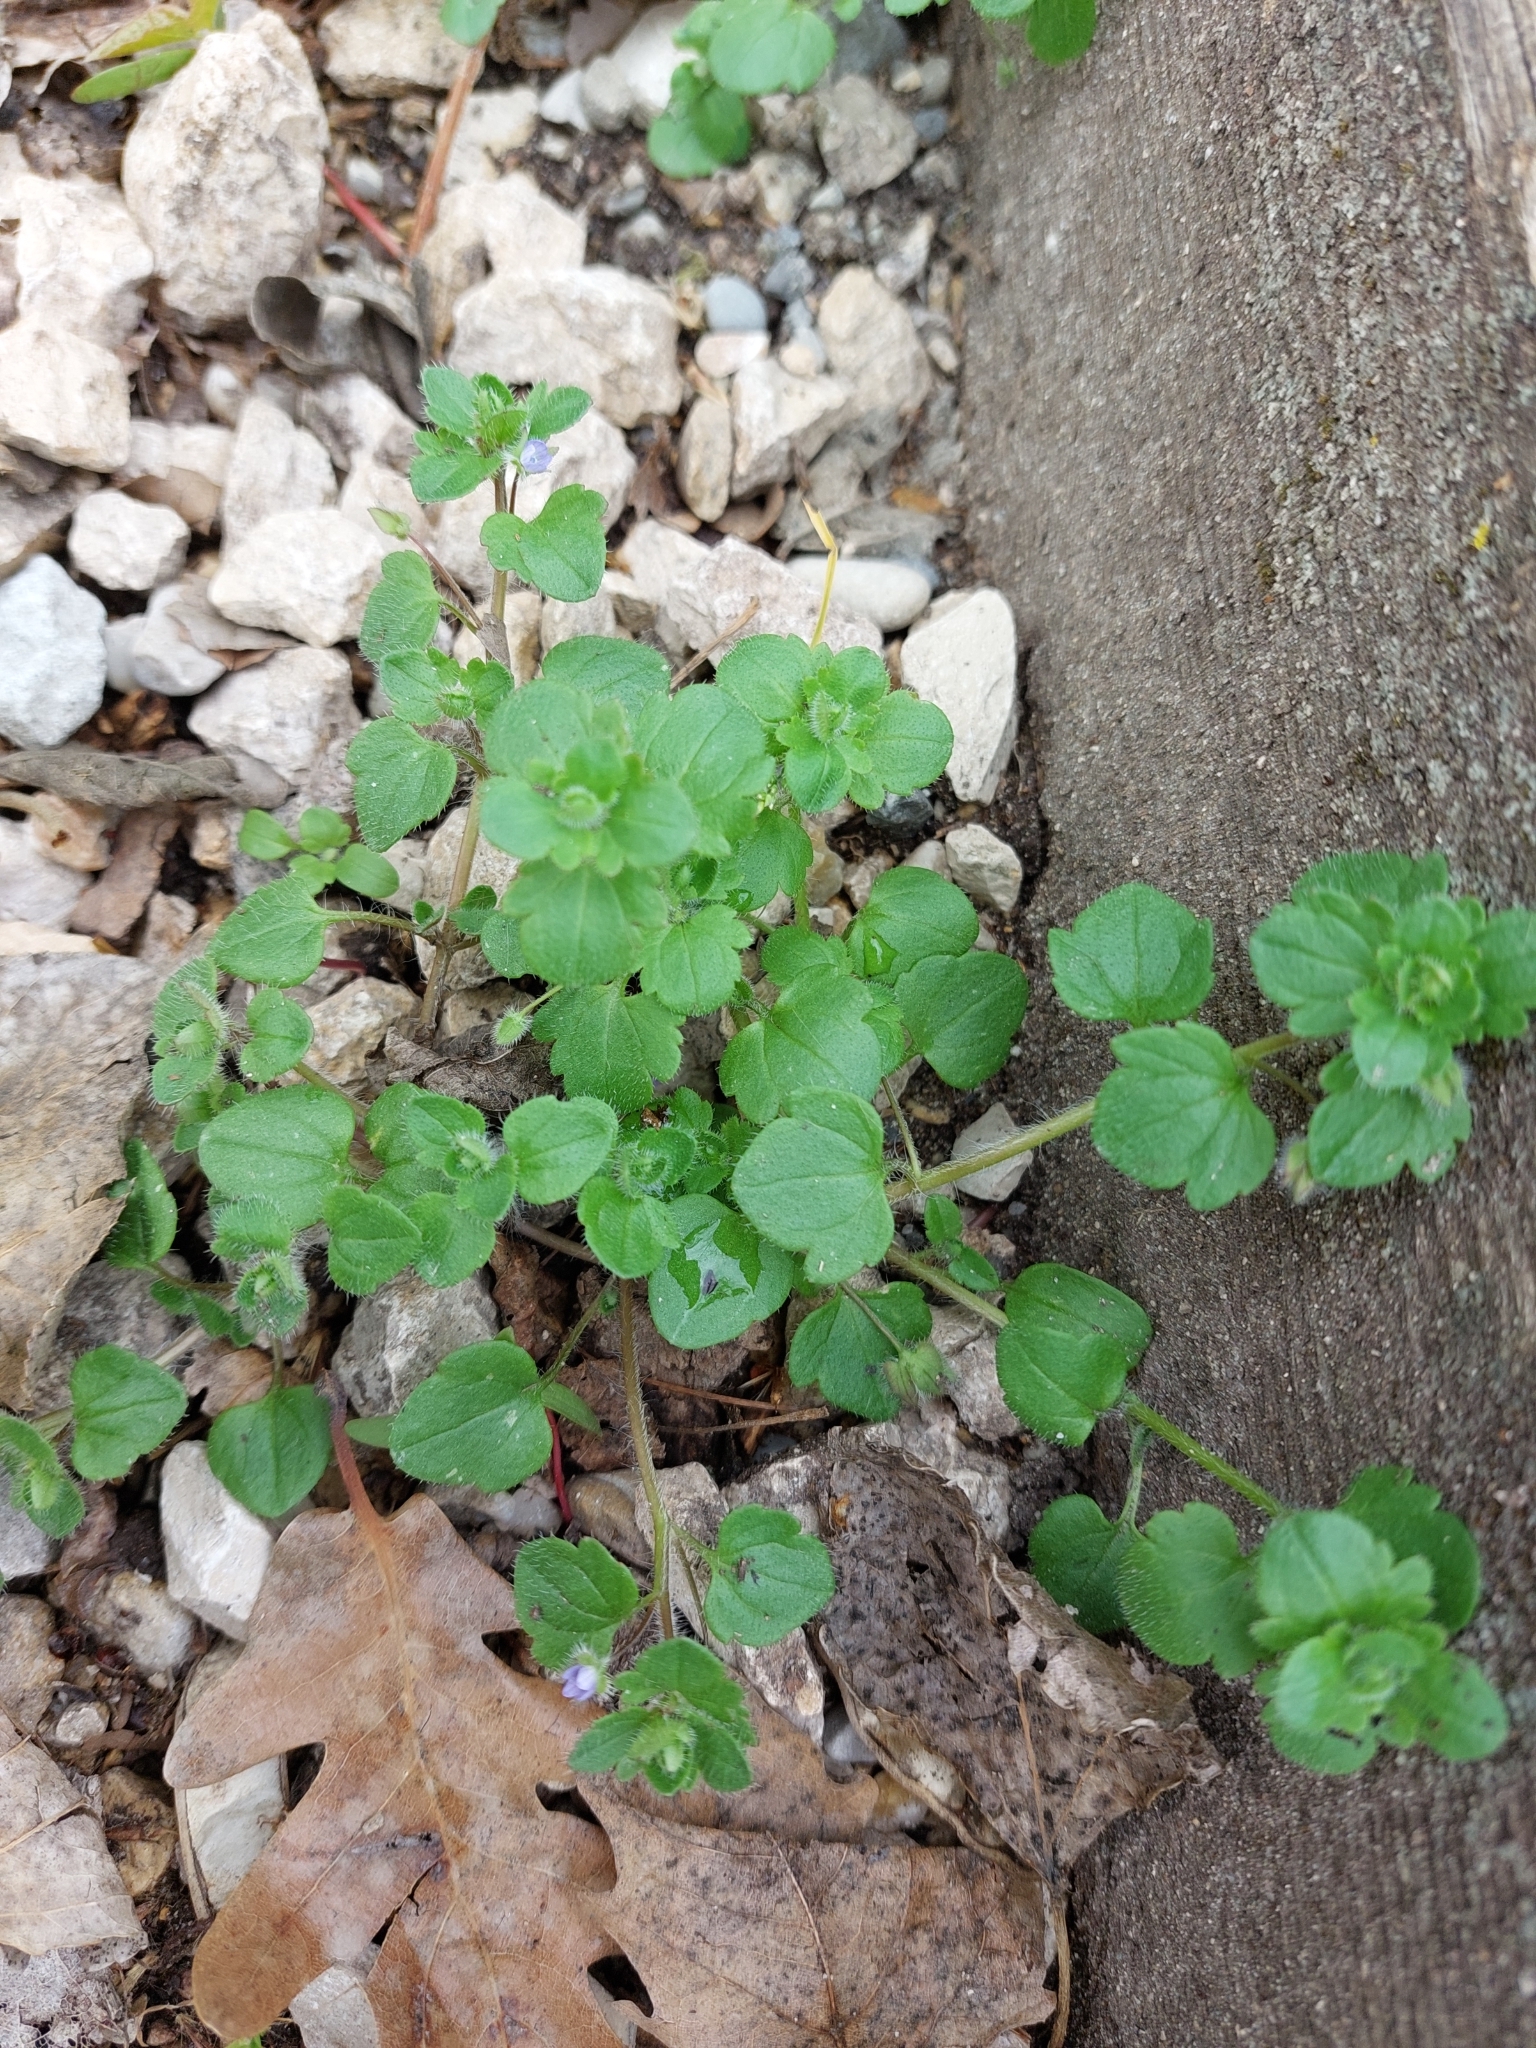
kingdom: Plantae
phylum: Tracheophyta
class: Magnoliopsida
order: Lamiales
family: Plantaginaceae
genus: Veronica
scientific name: Veronica hederifolia
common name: Ivy-leaved speedwell
